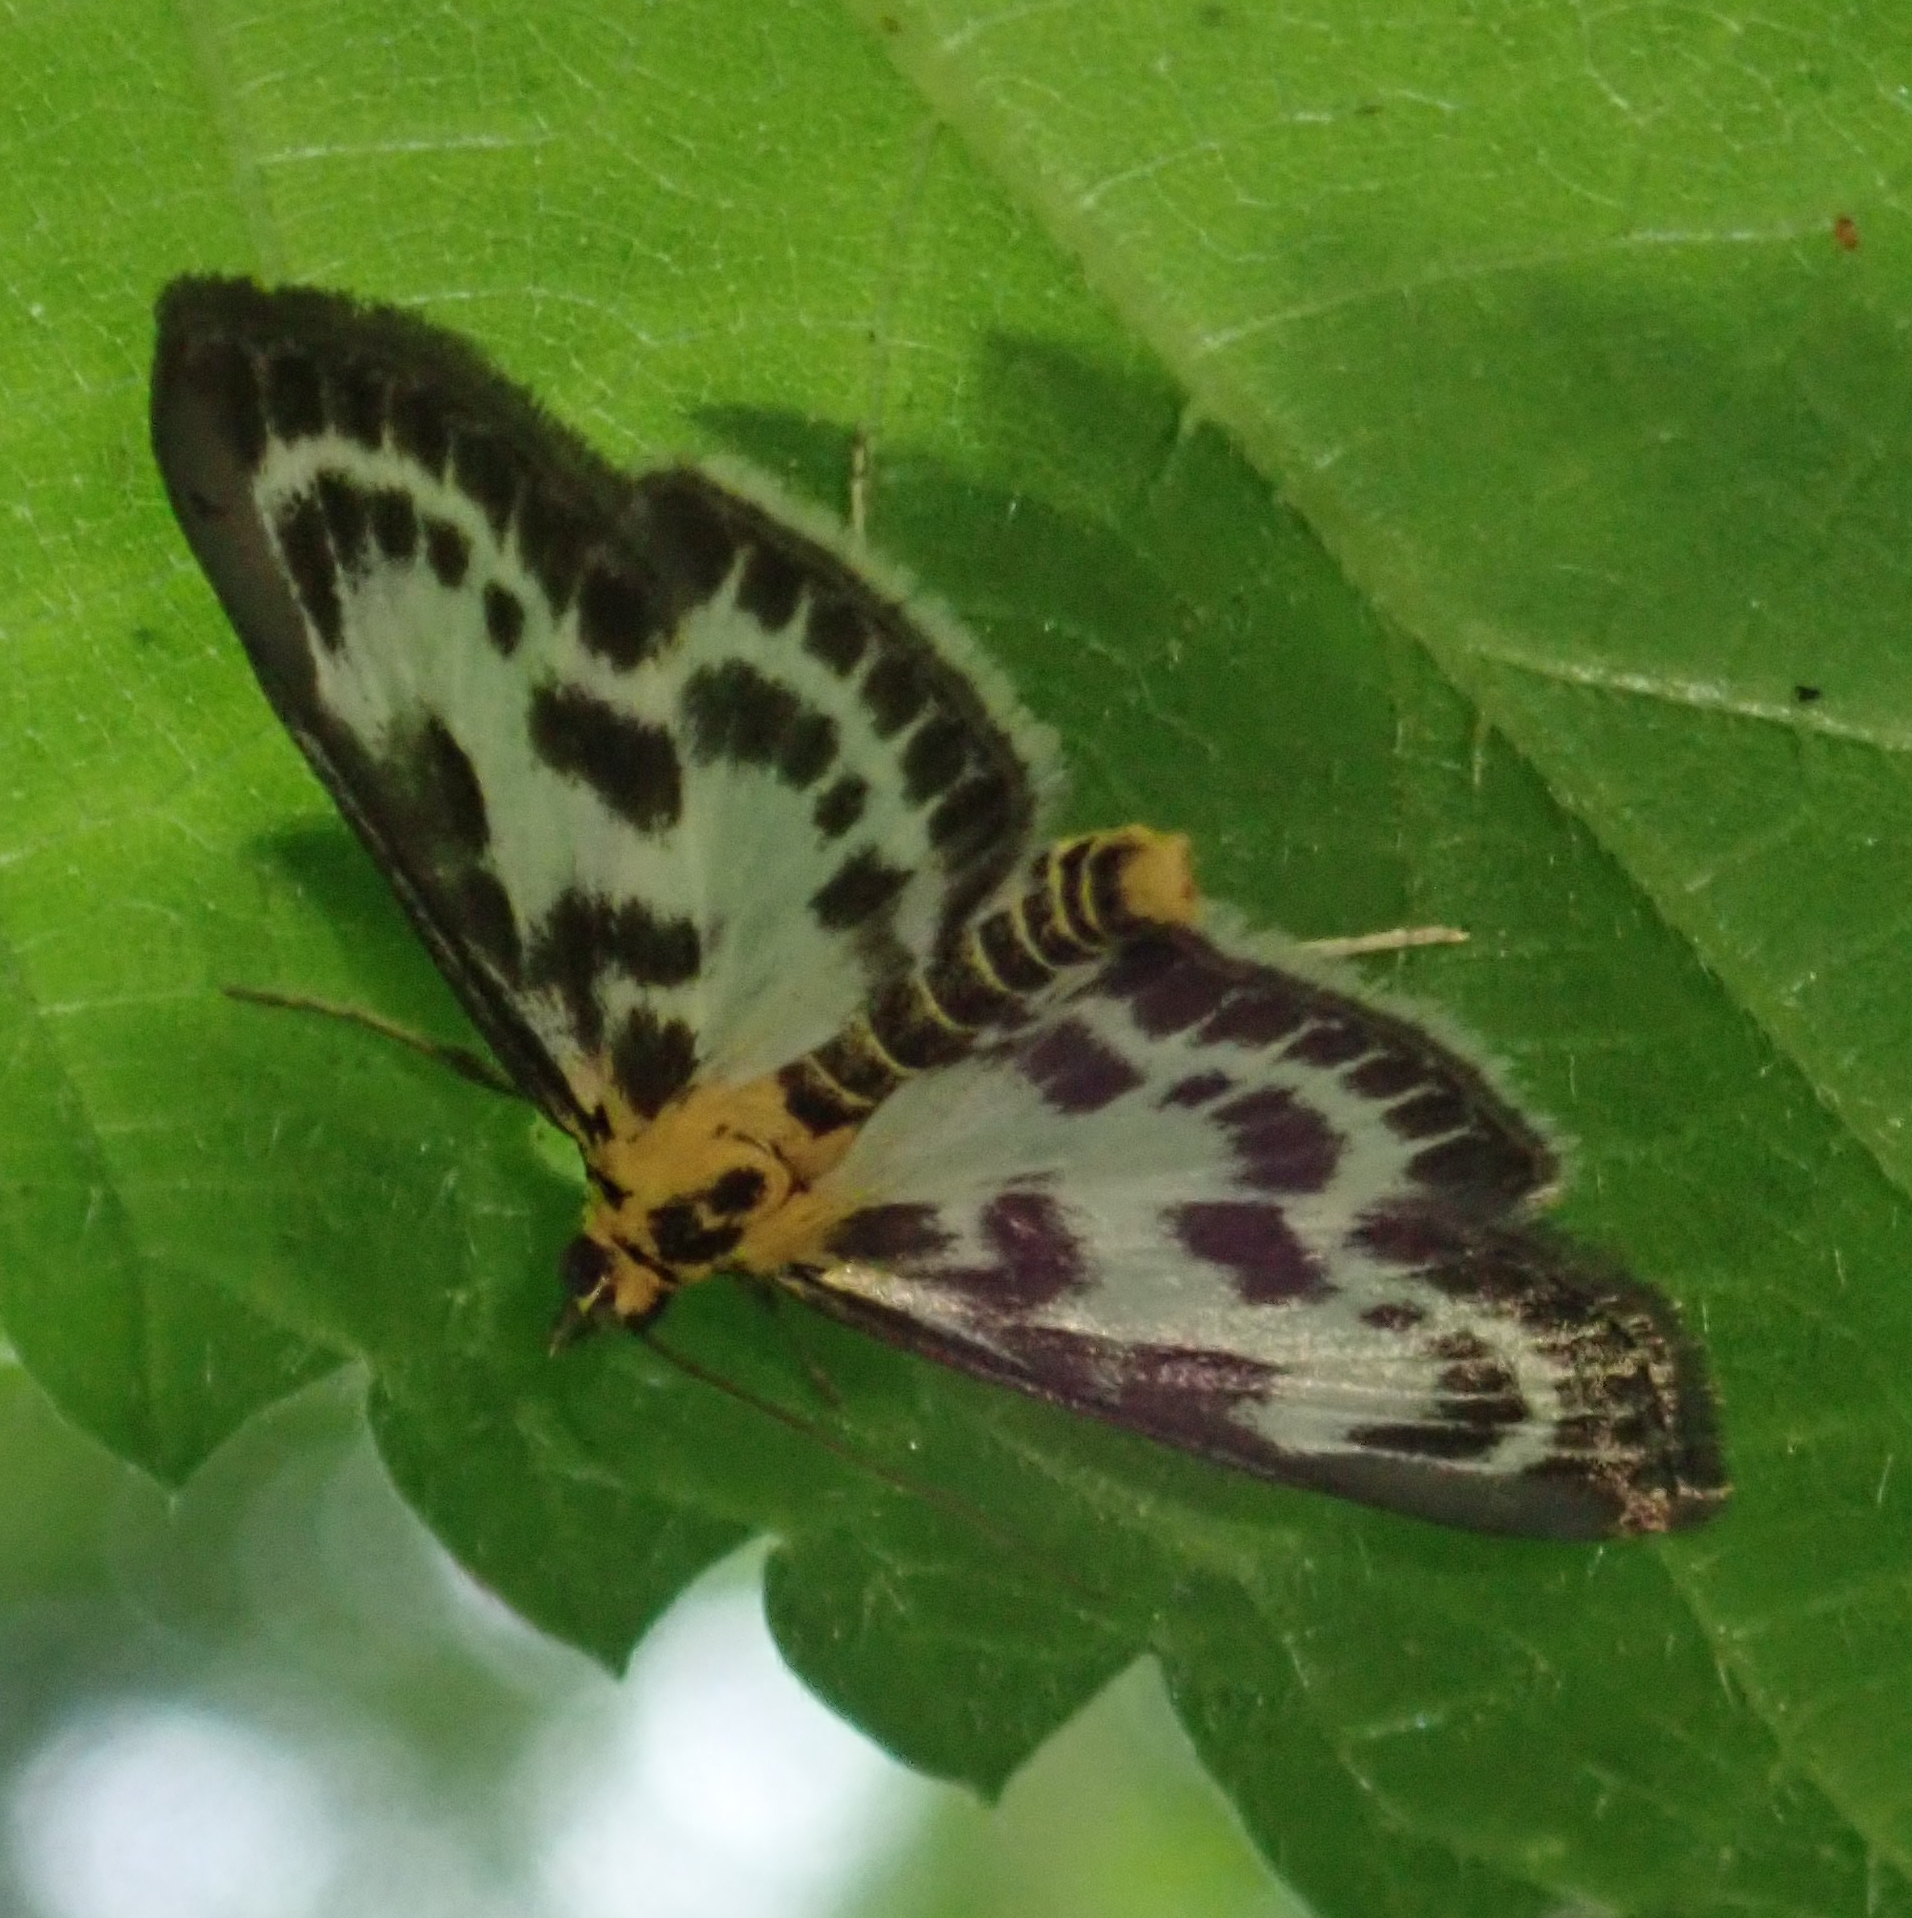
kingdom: Animalia
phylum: Arthropoda
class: Insecta
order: Lepidoptera
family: Crambidae
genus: Anania
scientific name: Anania hortulata
